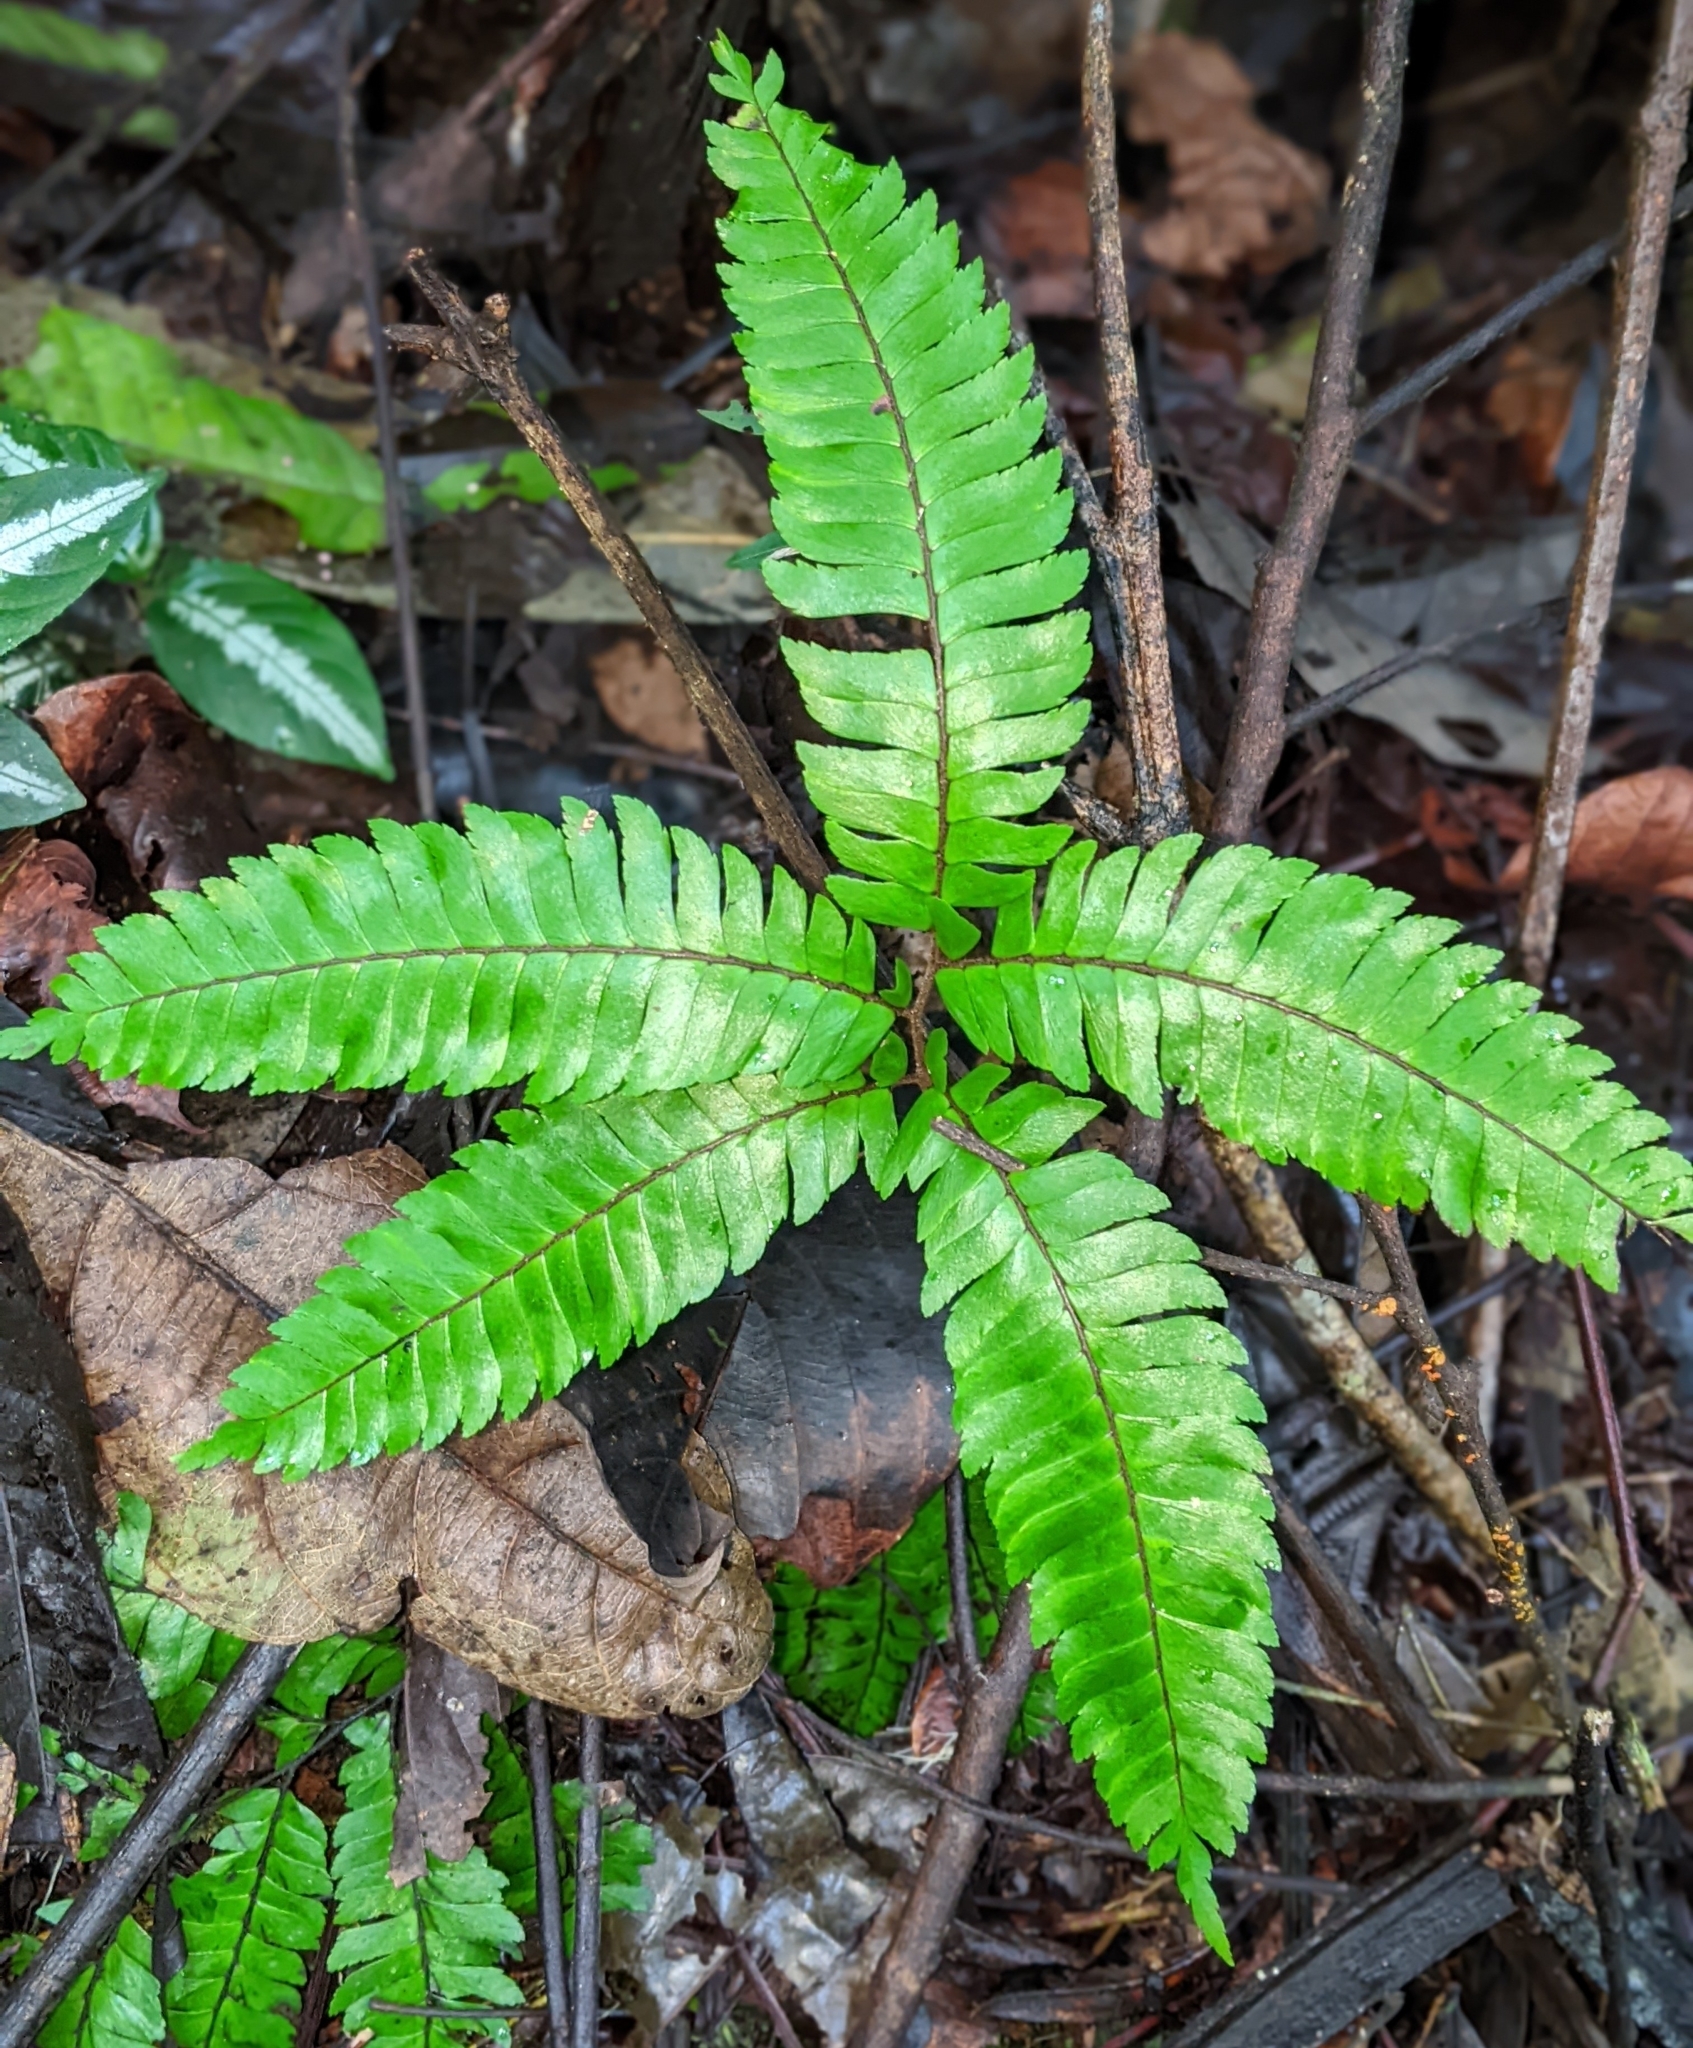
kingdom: Plantae
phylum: Tracheophyta
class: Polypodiopsida
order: Polypodiales
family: Pteridaceae
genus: Adiantum
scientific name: Adiantum pulverulentum
